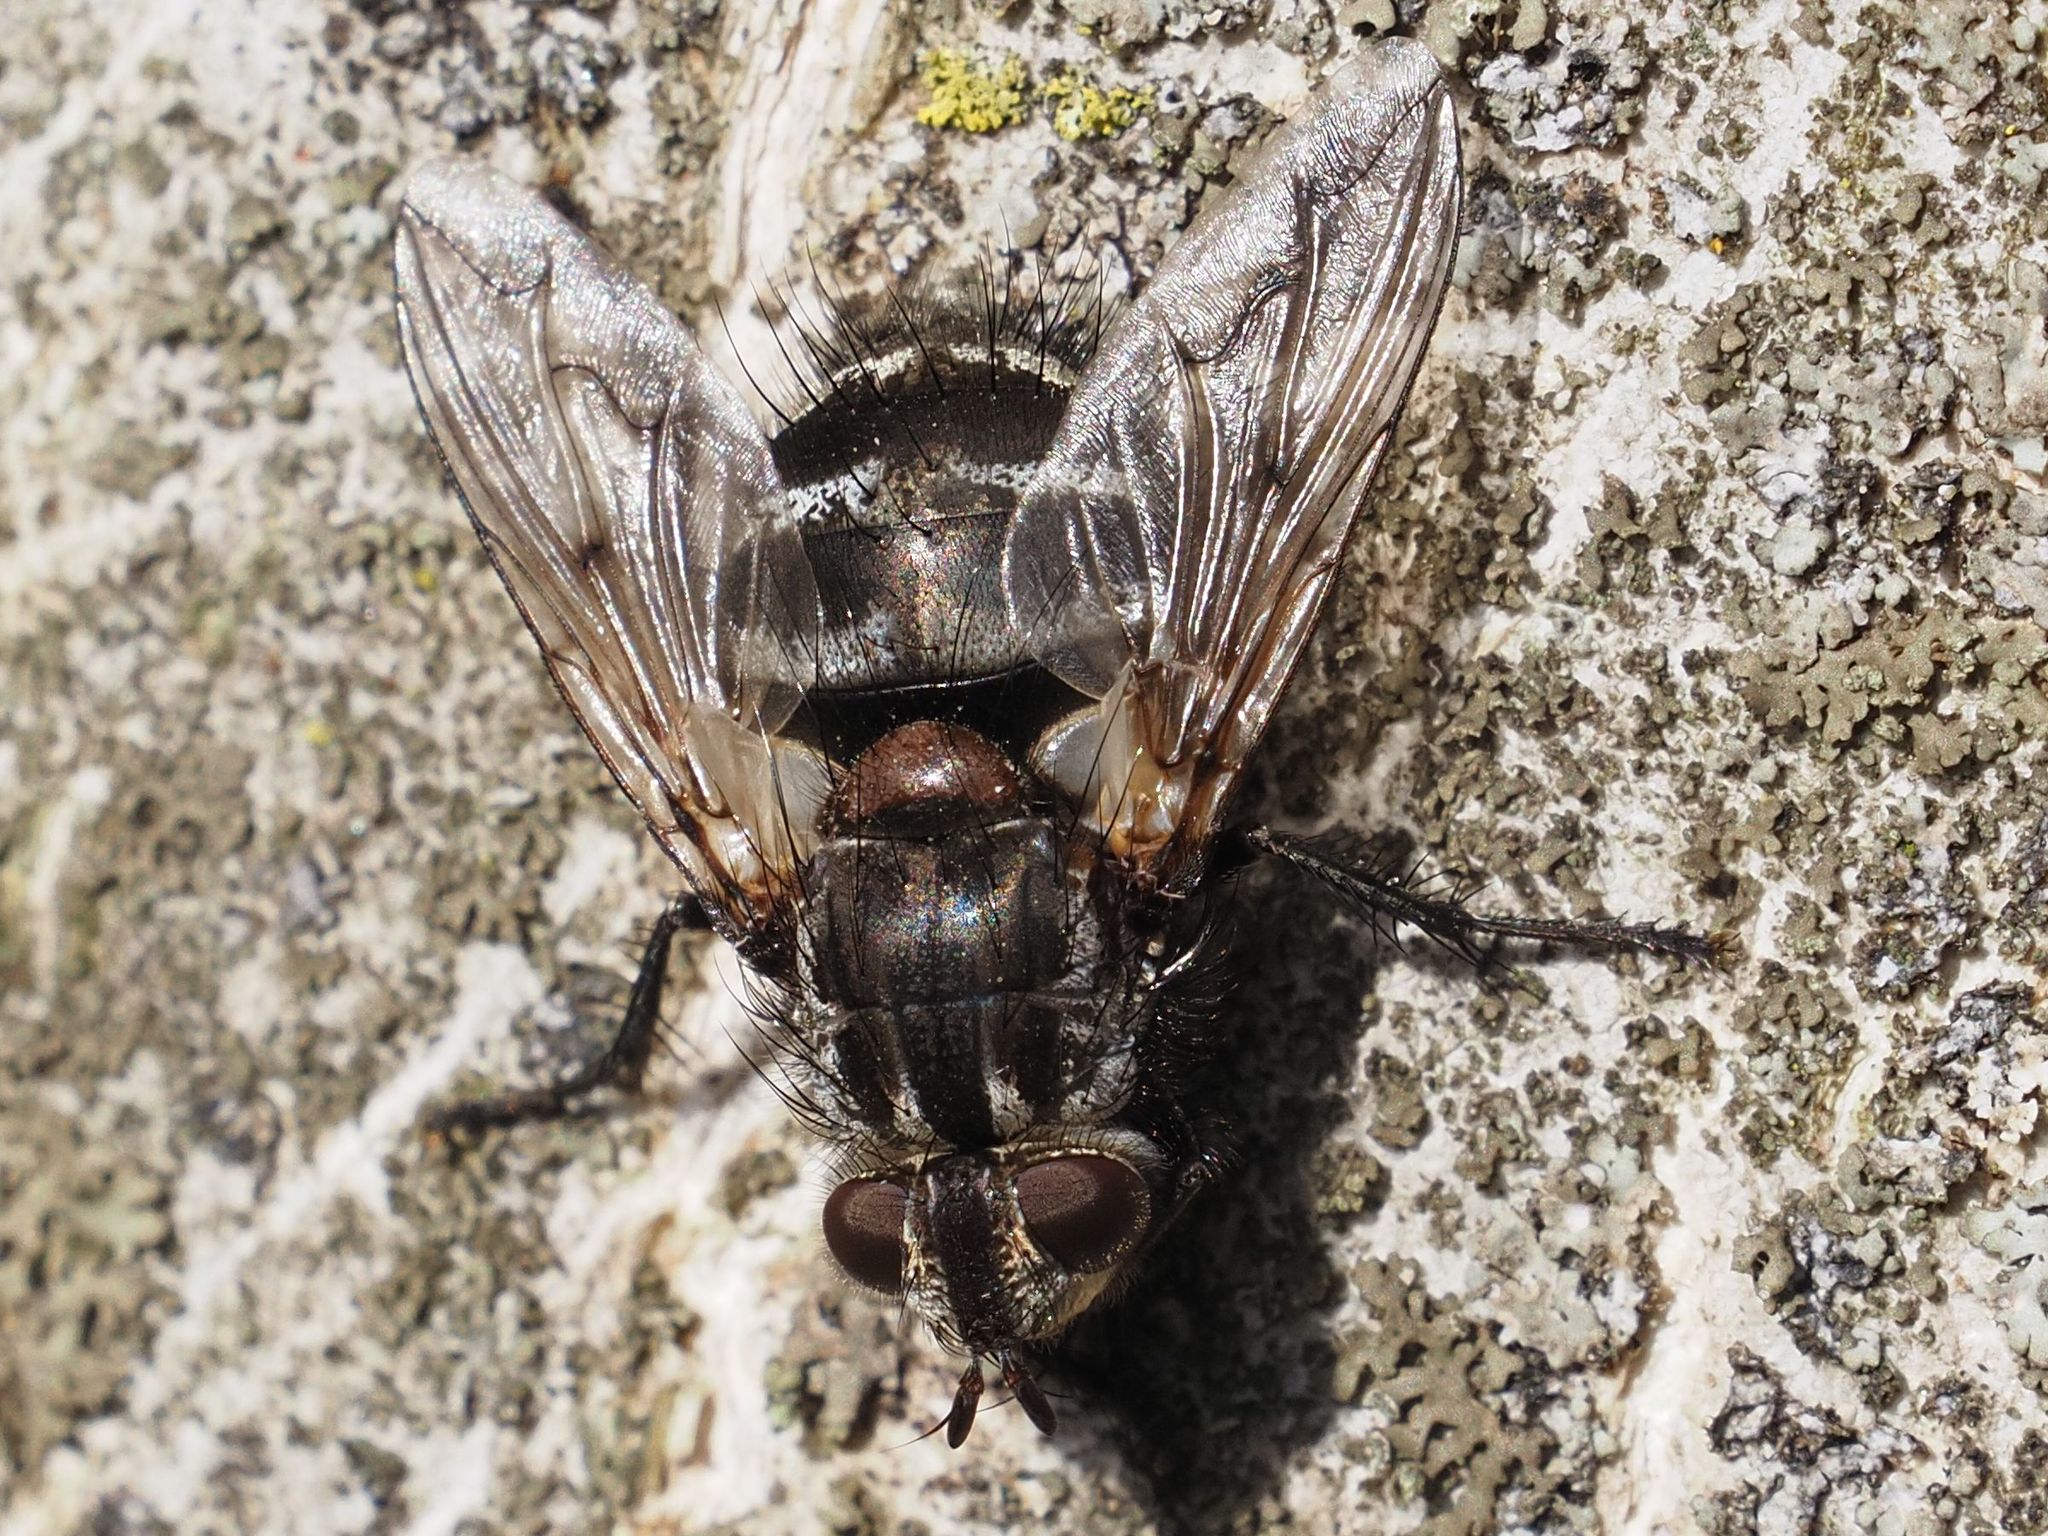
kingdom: Animalia
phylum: Arthropoda
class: Insecta
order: Diptera
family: Tachinidae
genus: Panzeria
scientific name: Panzeria puparum
